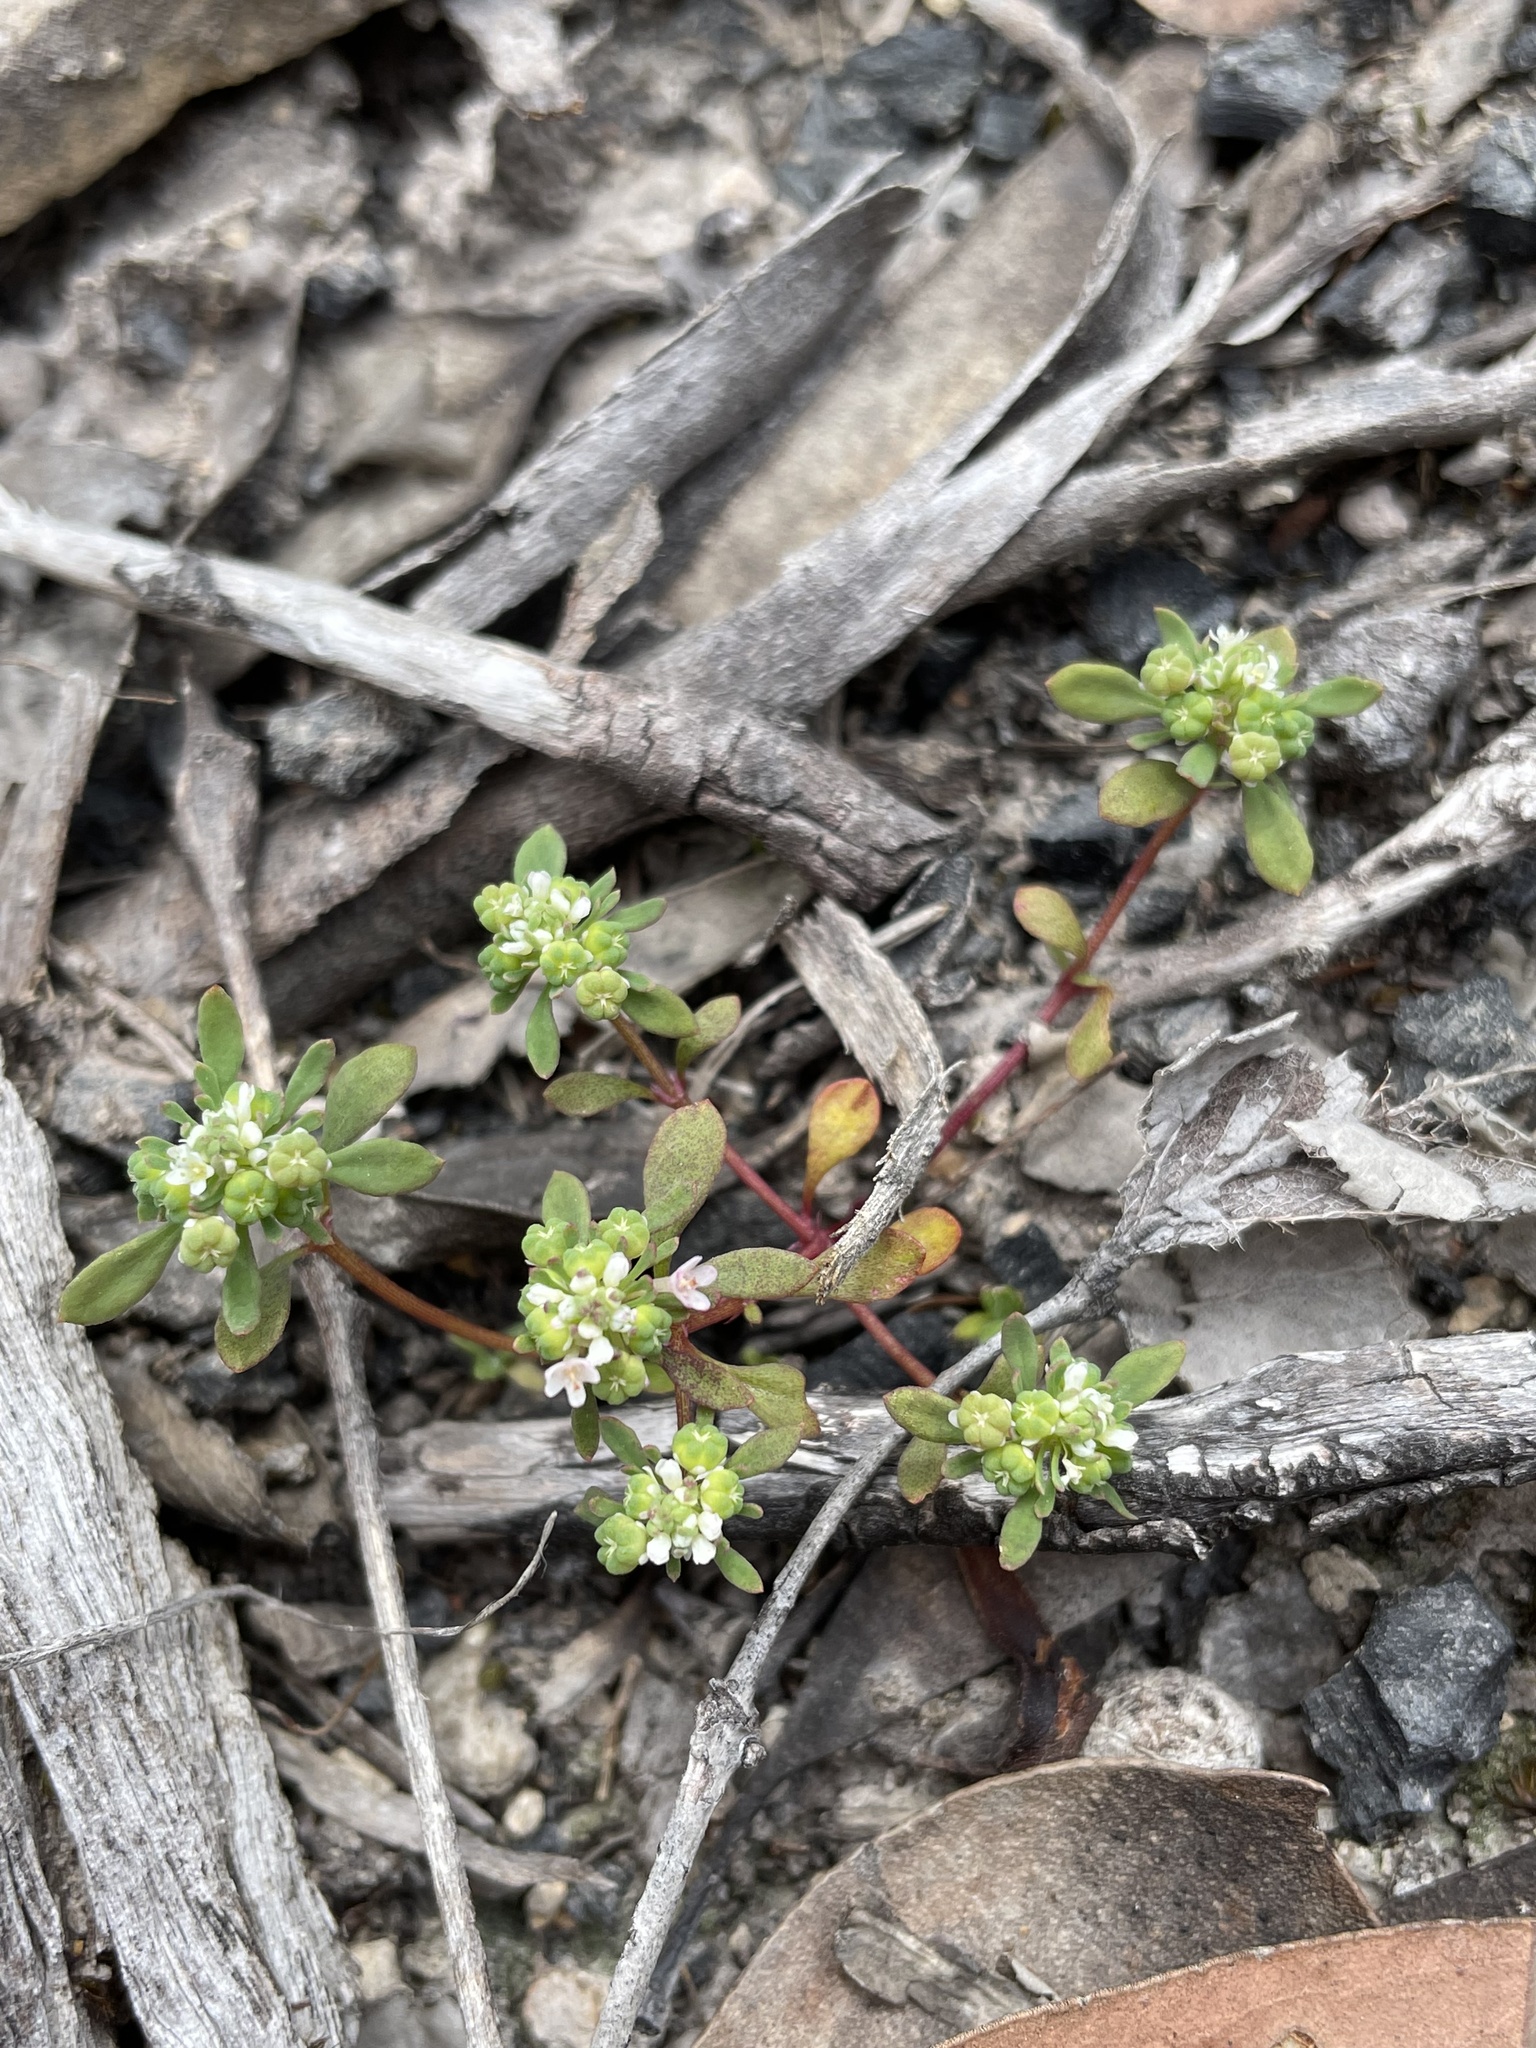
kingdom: Plantae
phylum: Tracheophyta
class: Magnoliopsida
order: Malpighiales
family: Phyllanthaceae
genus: Poranthera
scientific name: Poranthera microphylla
